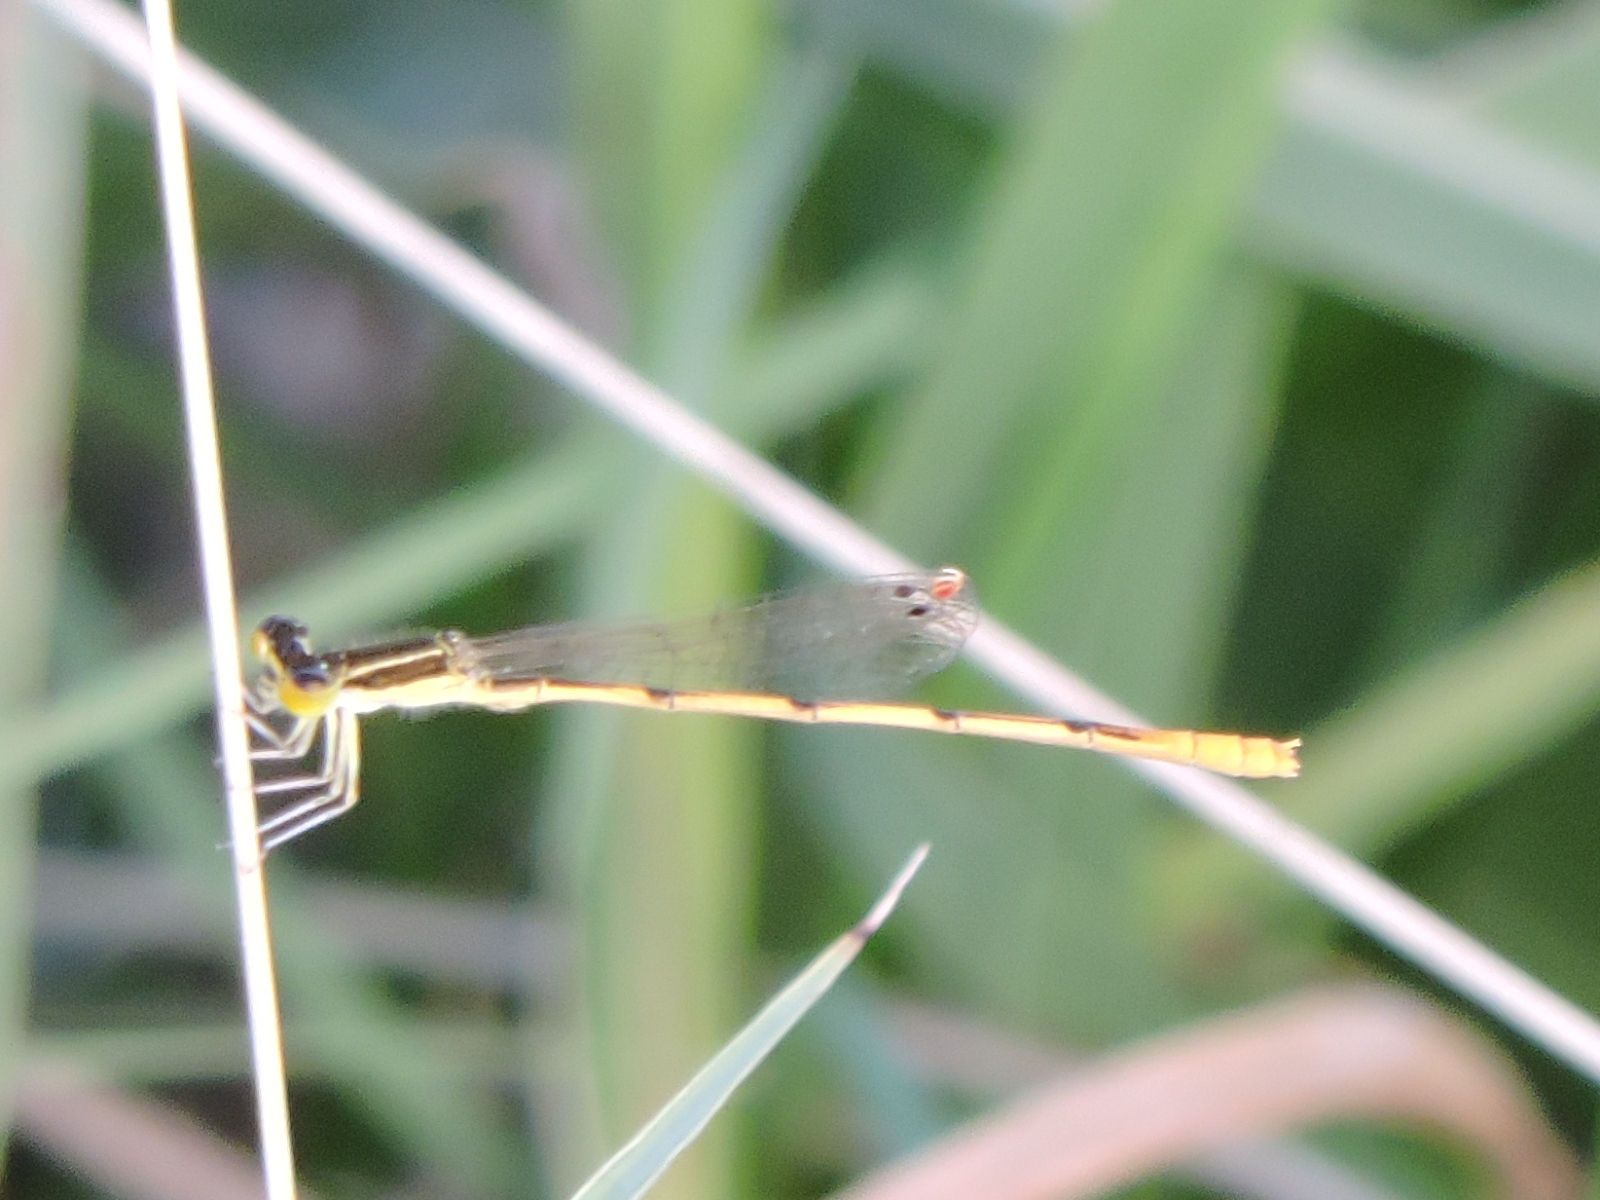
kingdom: Animalia
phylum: Arthropoda
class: Insecta
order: Odonata
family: Coenagrionidae
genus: Ischnura
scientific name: Ischnura hastata
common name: Citrine forktail
